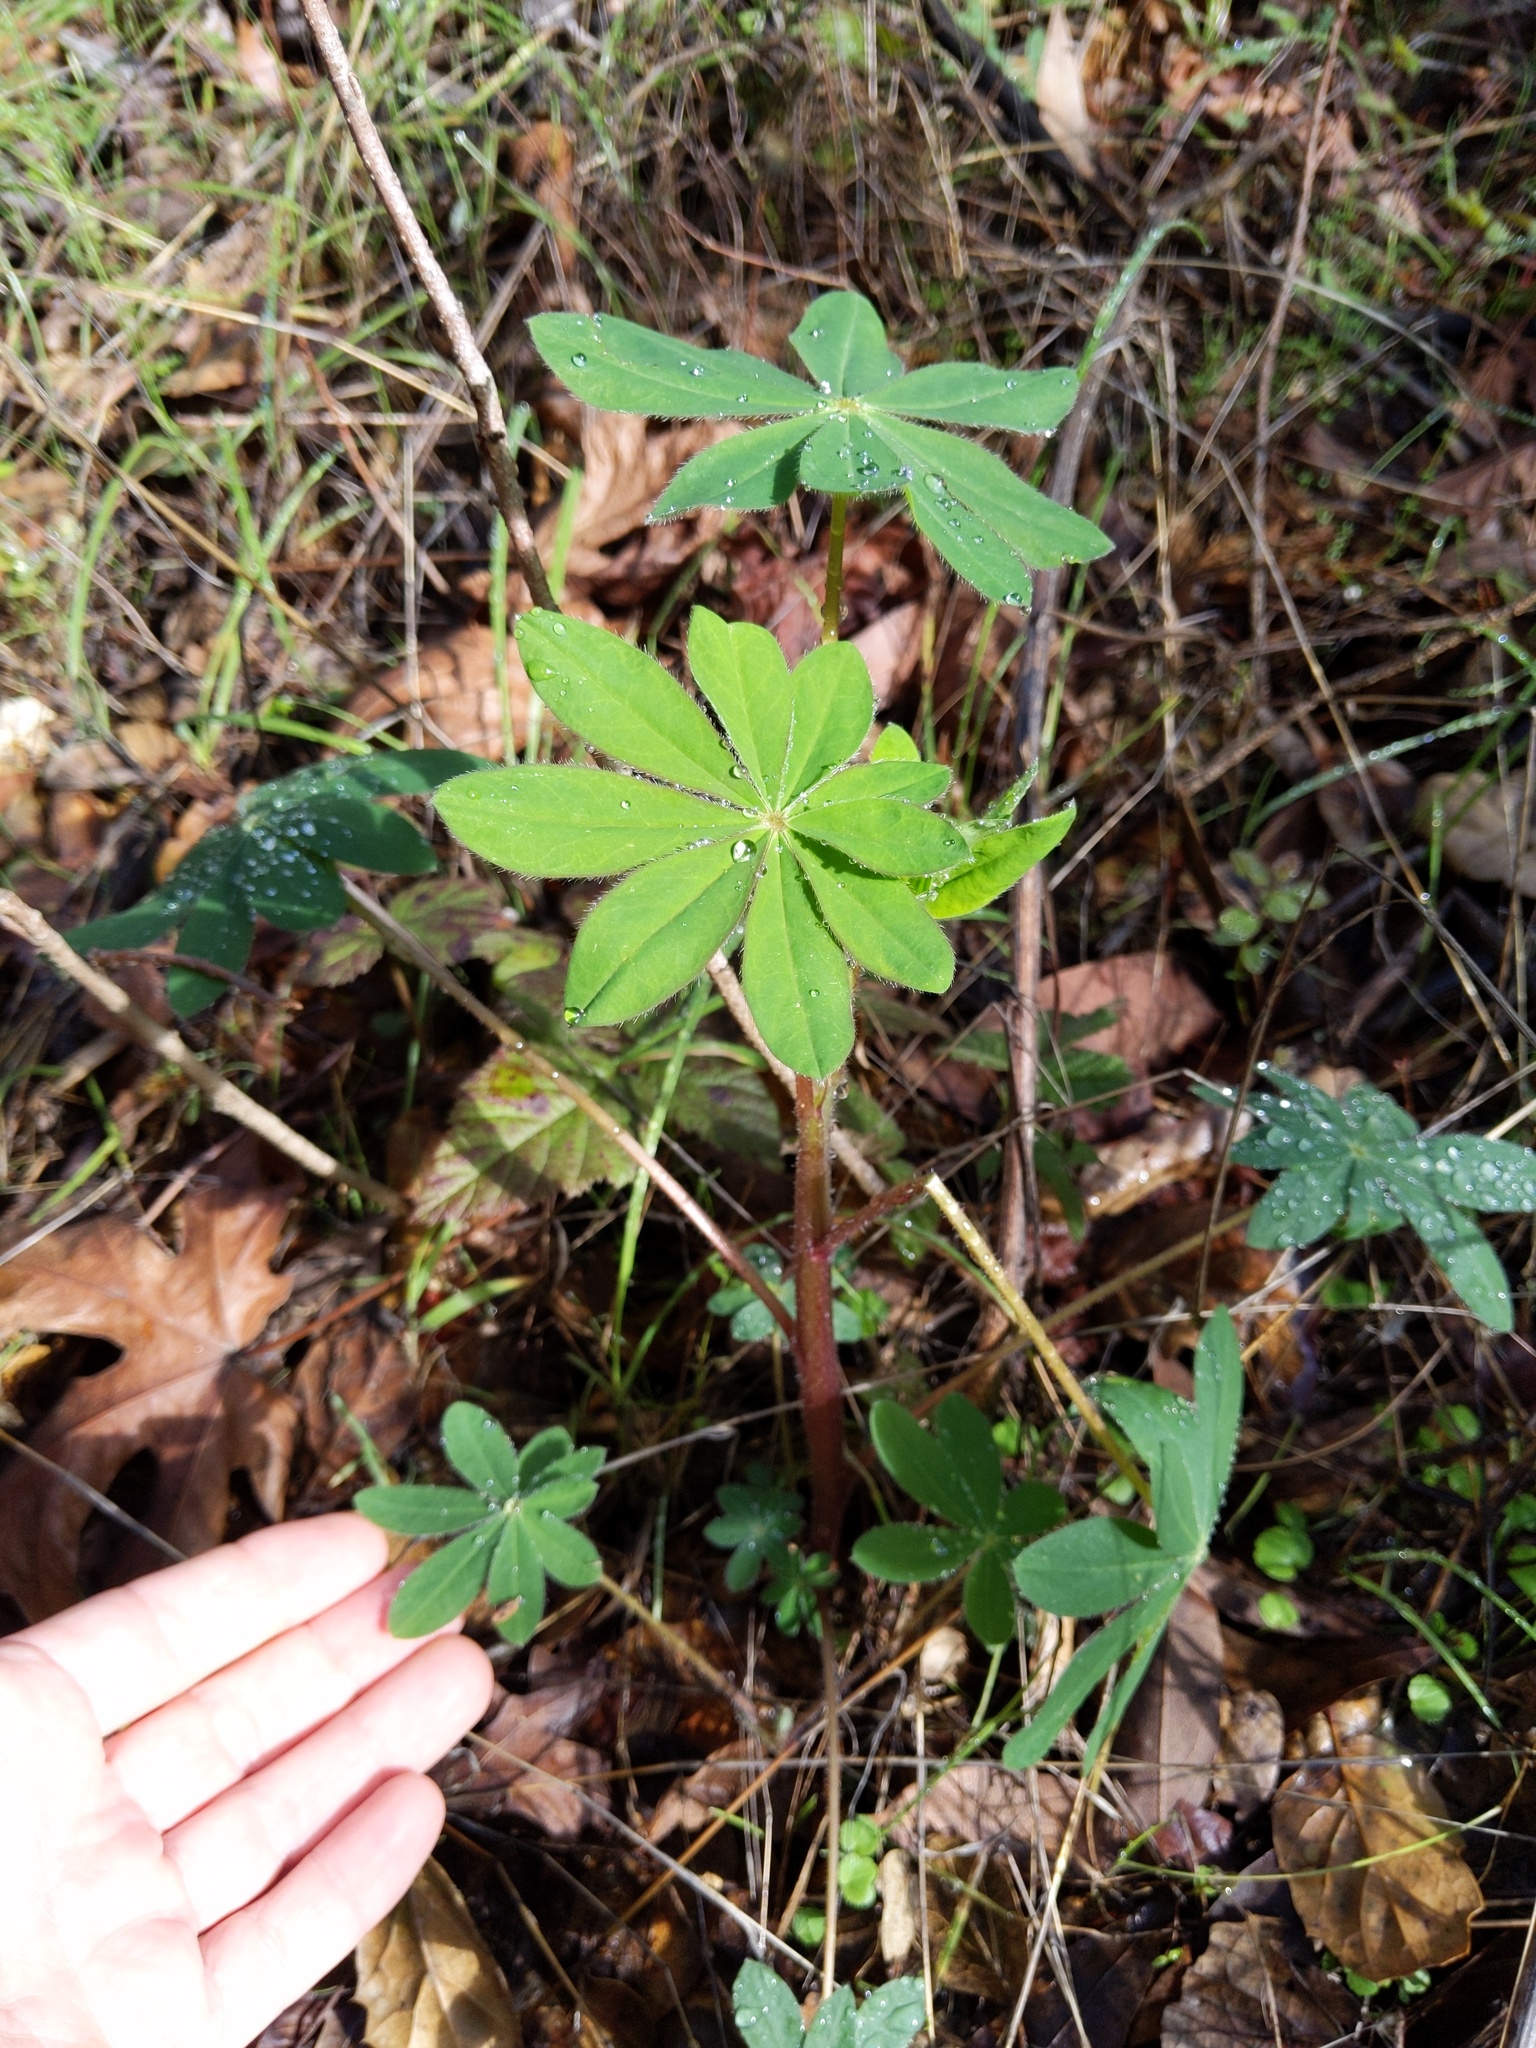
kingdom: Plantae
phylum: Tracheophyta
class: Magnoliopsida
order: Fabales
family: Fabaceae
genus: Lupinus
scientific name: Lupinus succulentus
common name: Arroyo lupine
